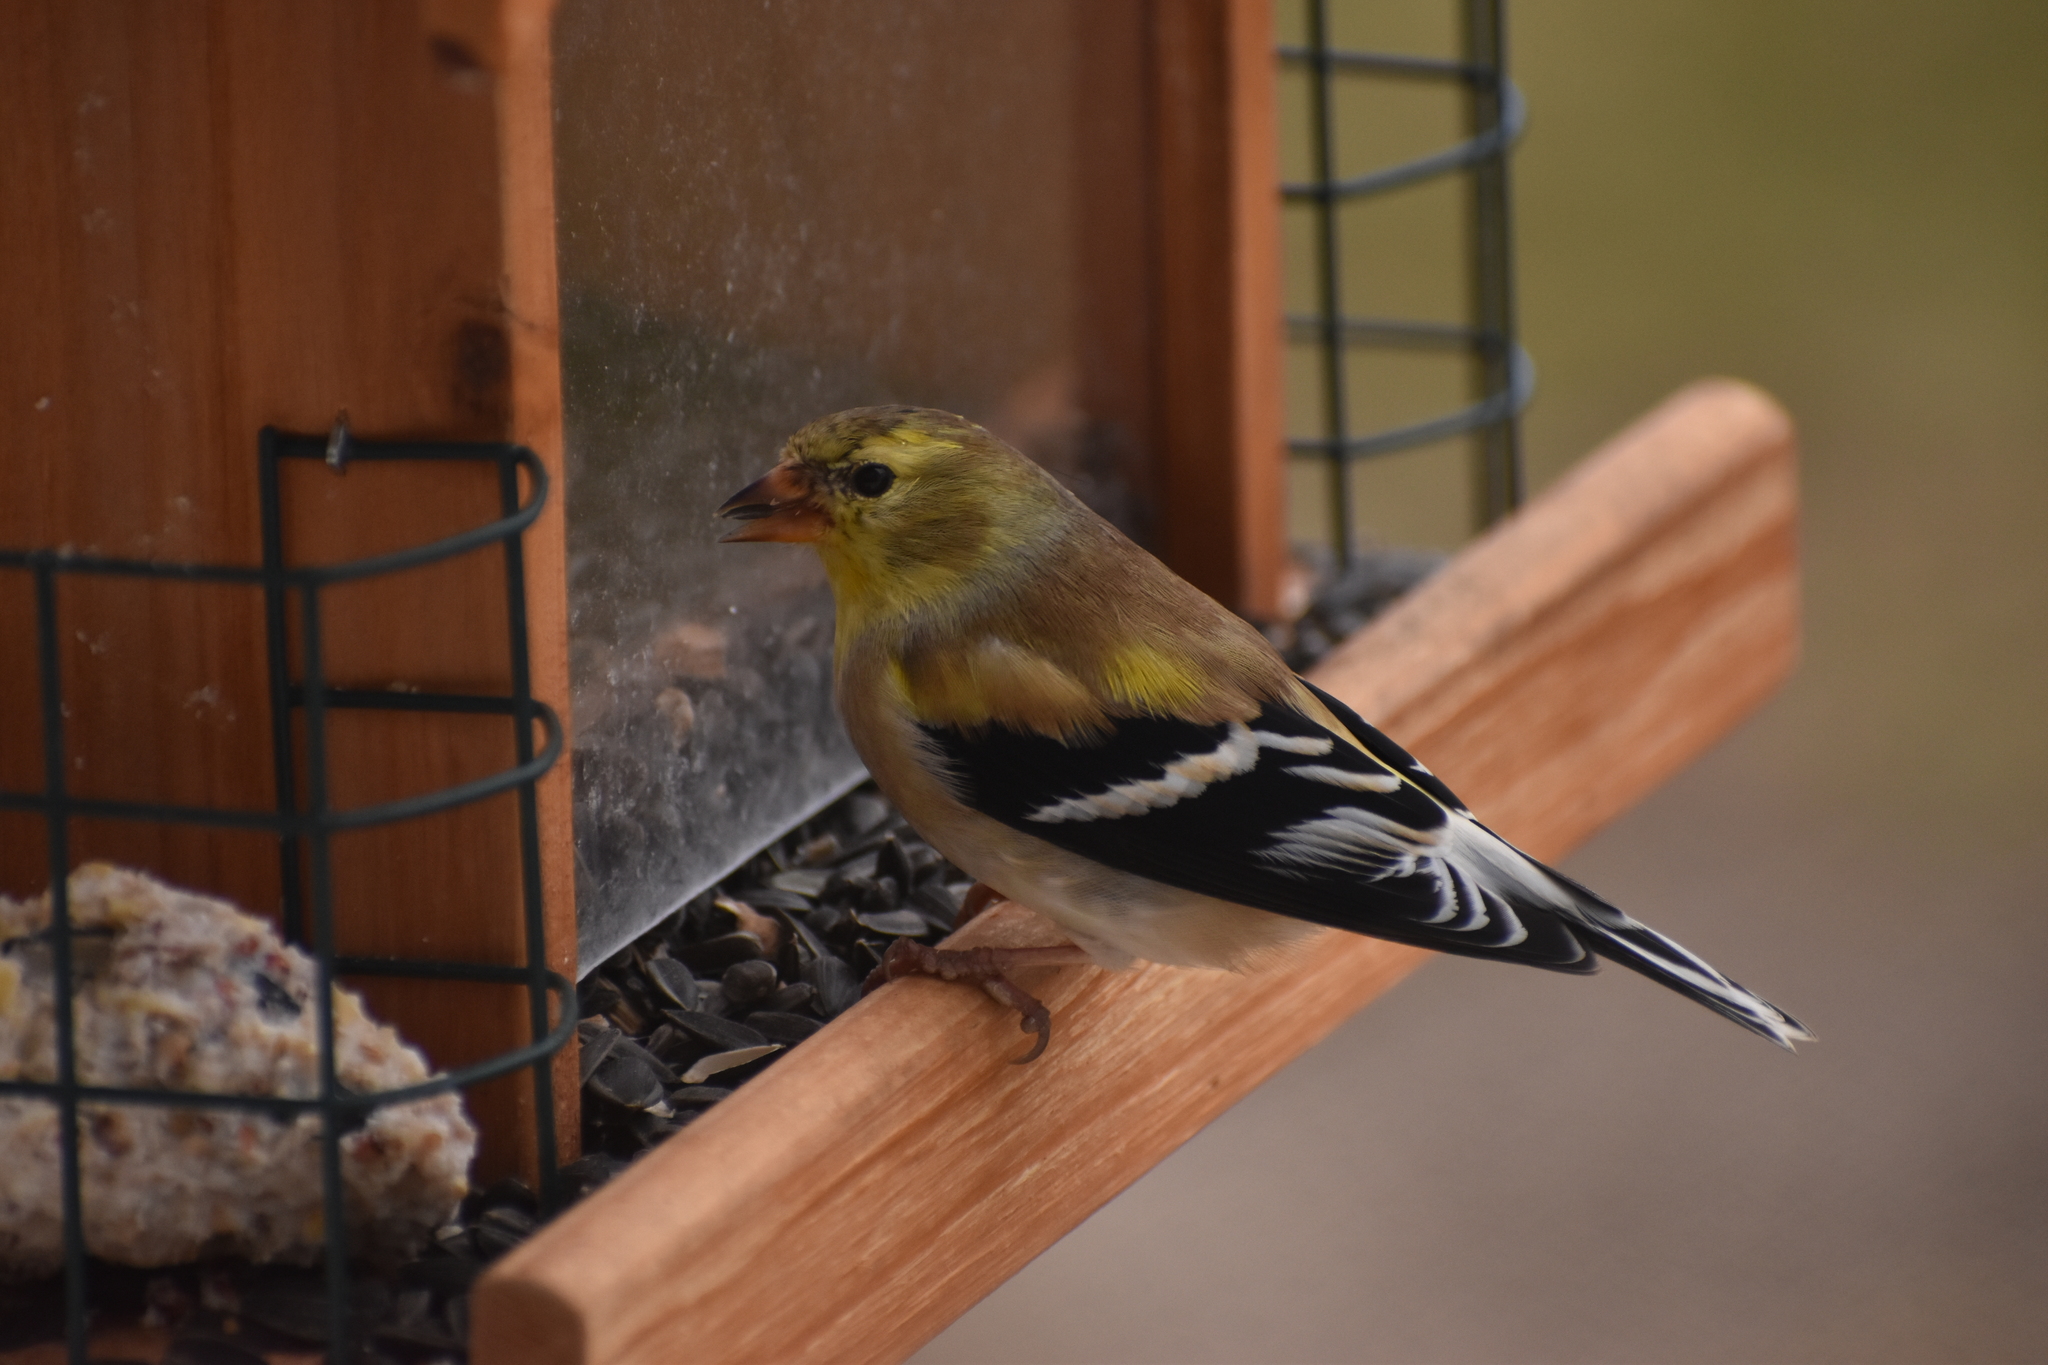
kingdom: Animalia
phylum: Chordata
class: Aves
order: Passeriformes
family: Fringillidae
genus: Spinus
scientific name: Spinus tristis
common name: American goldfinch
